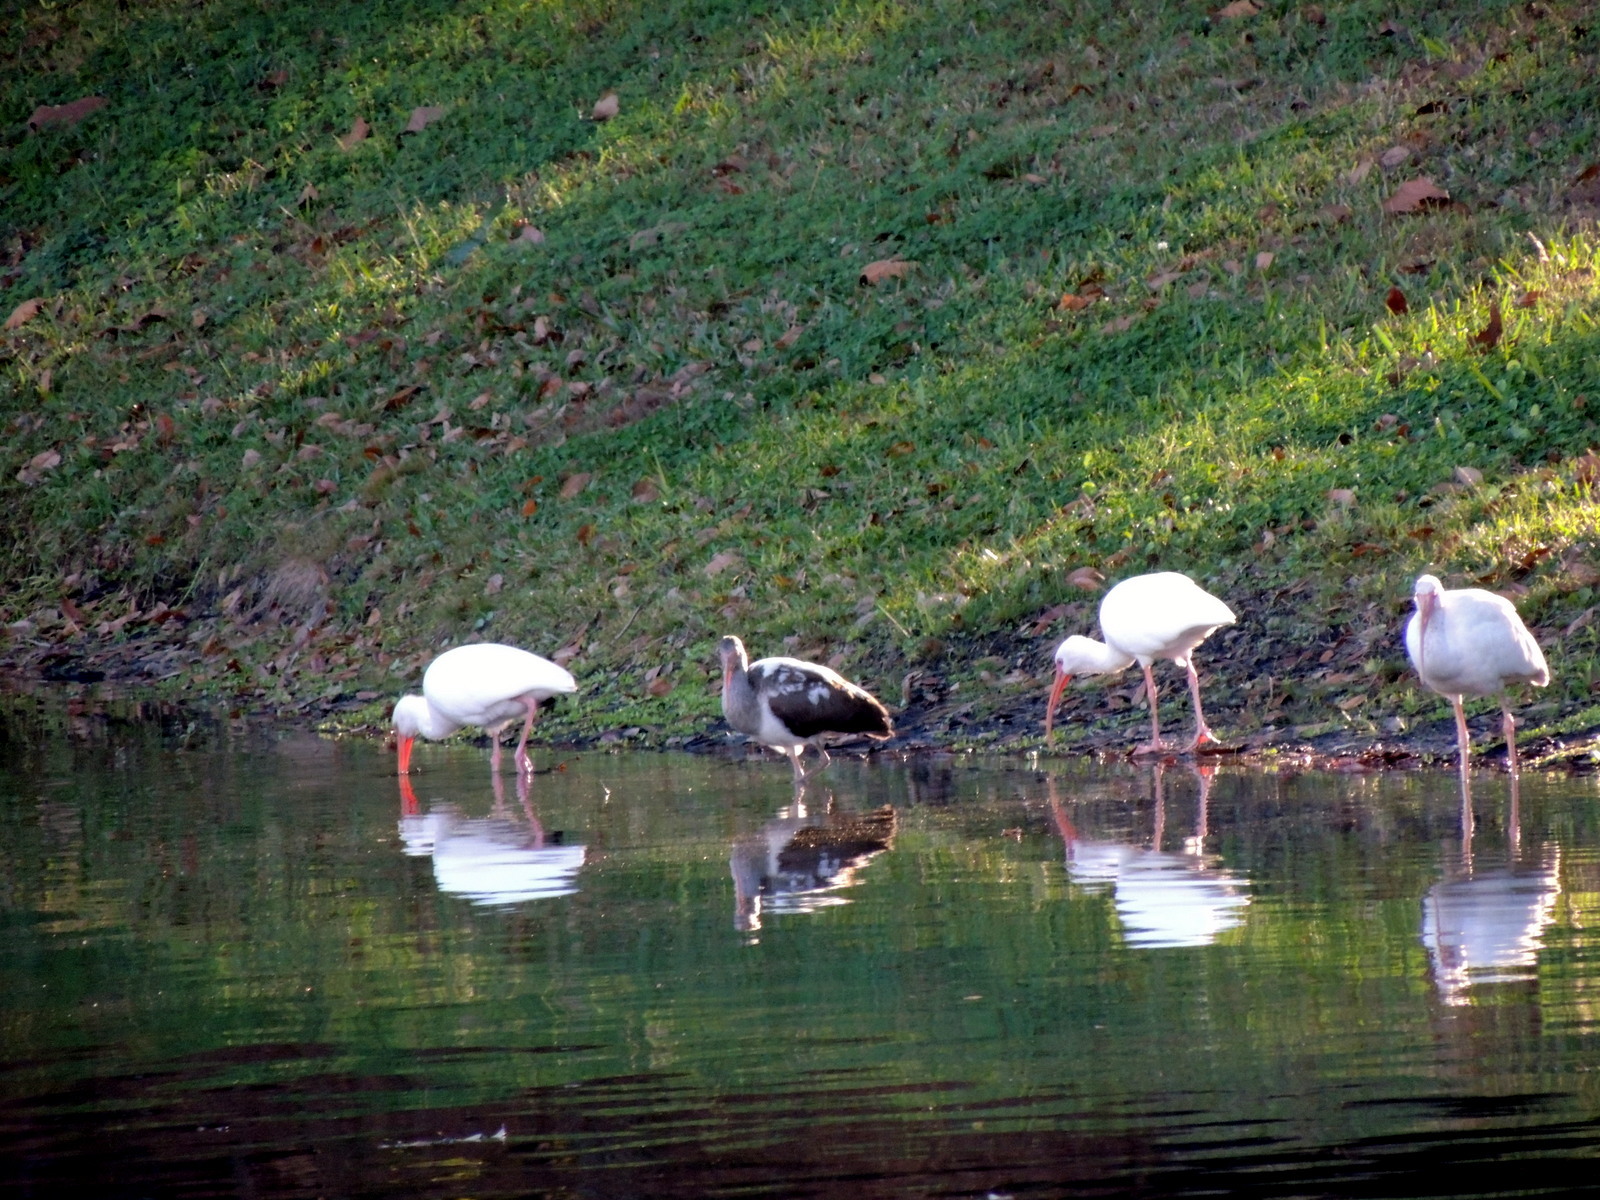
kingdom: Animalia
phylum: Chordata
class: Aves
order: Pelecaniformes
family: Threskiornithidae
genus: Eudocimus
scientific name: Eudocimus albus
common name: White ibis
